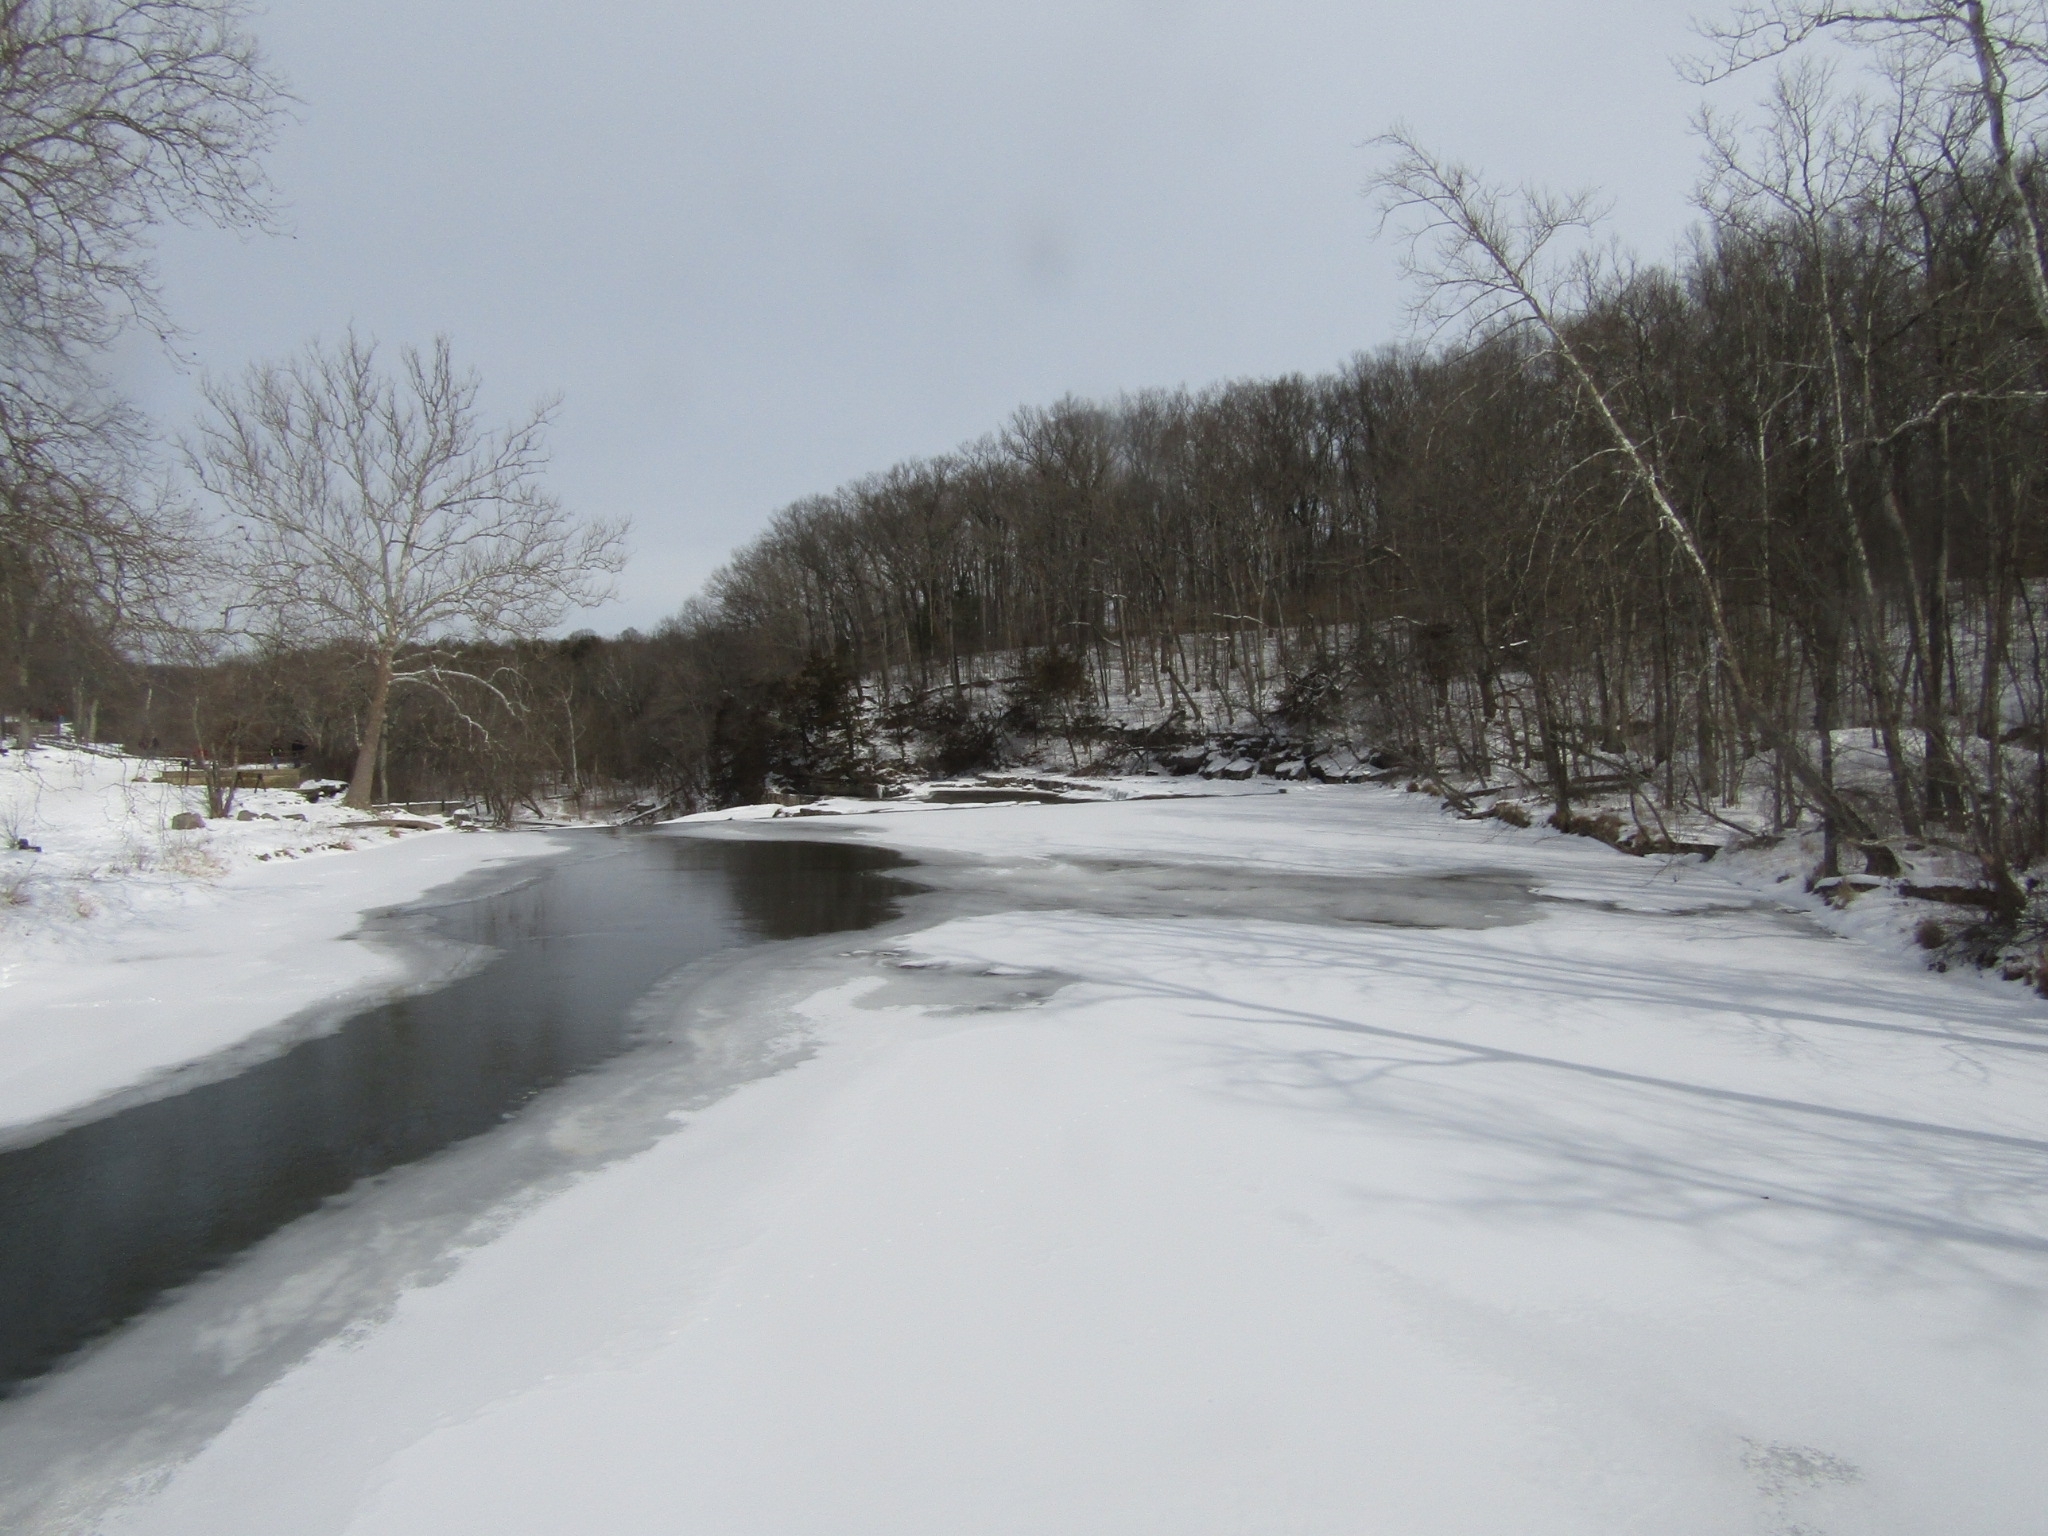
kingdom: Plantae
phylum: Tracheophyta
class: Magnoliopsida
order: Proteales
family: Platanaceae
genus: Platanus
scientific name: Platanus occidentalis
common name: American sycamore
